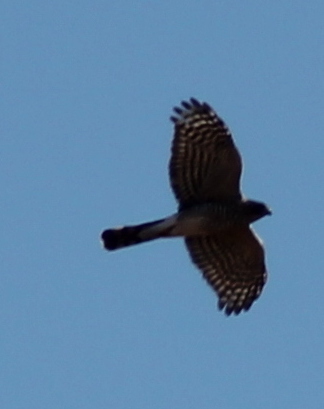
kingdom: Animalia
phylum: Chordata
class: Aves
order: Accipitriformes
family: Accipitridae
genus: Accipiter
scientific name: Accipiter striatus
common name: Sharp-shinned hawk
